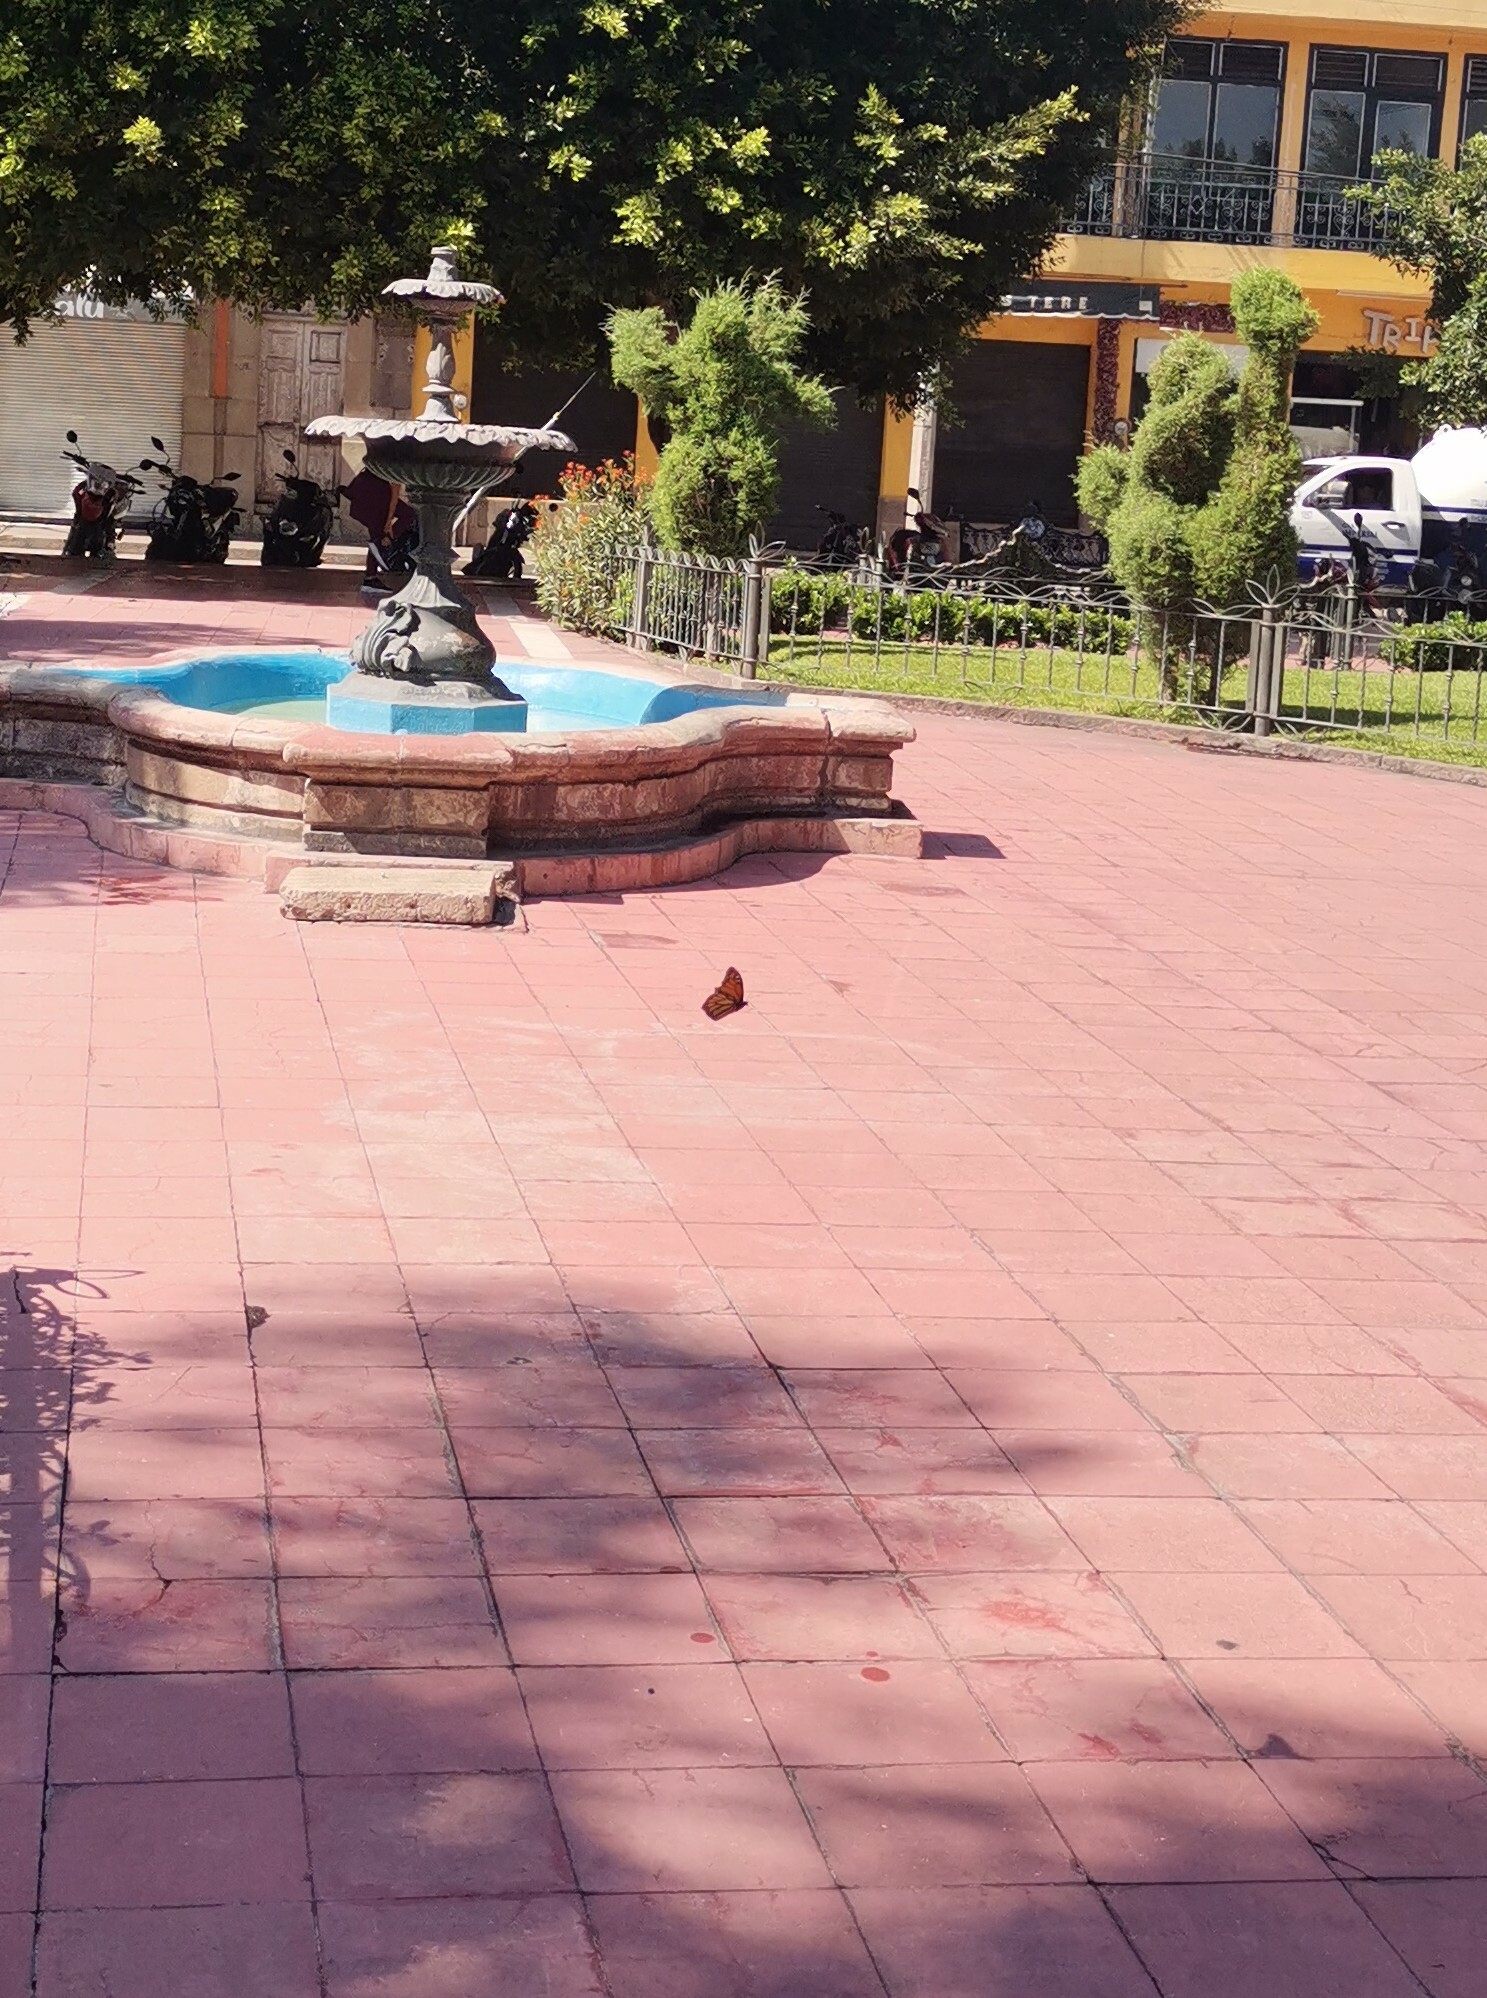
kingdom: Animalia
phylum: Arthropoda
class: Insecta
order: Lepidoptera
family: Nymphalidae
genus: Danaus
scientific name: Danaus plexippus
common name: Monarch
